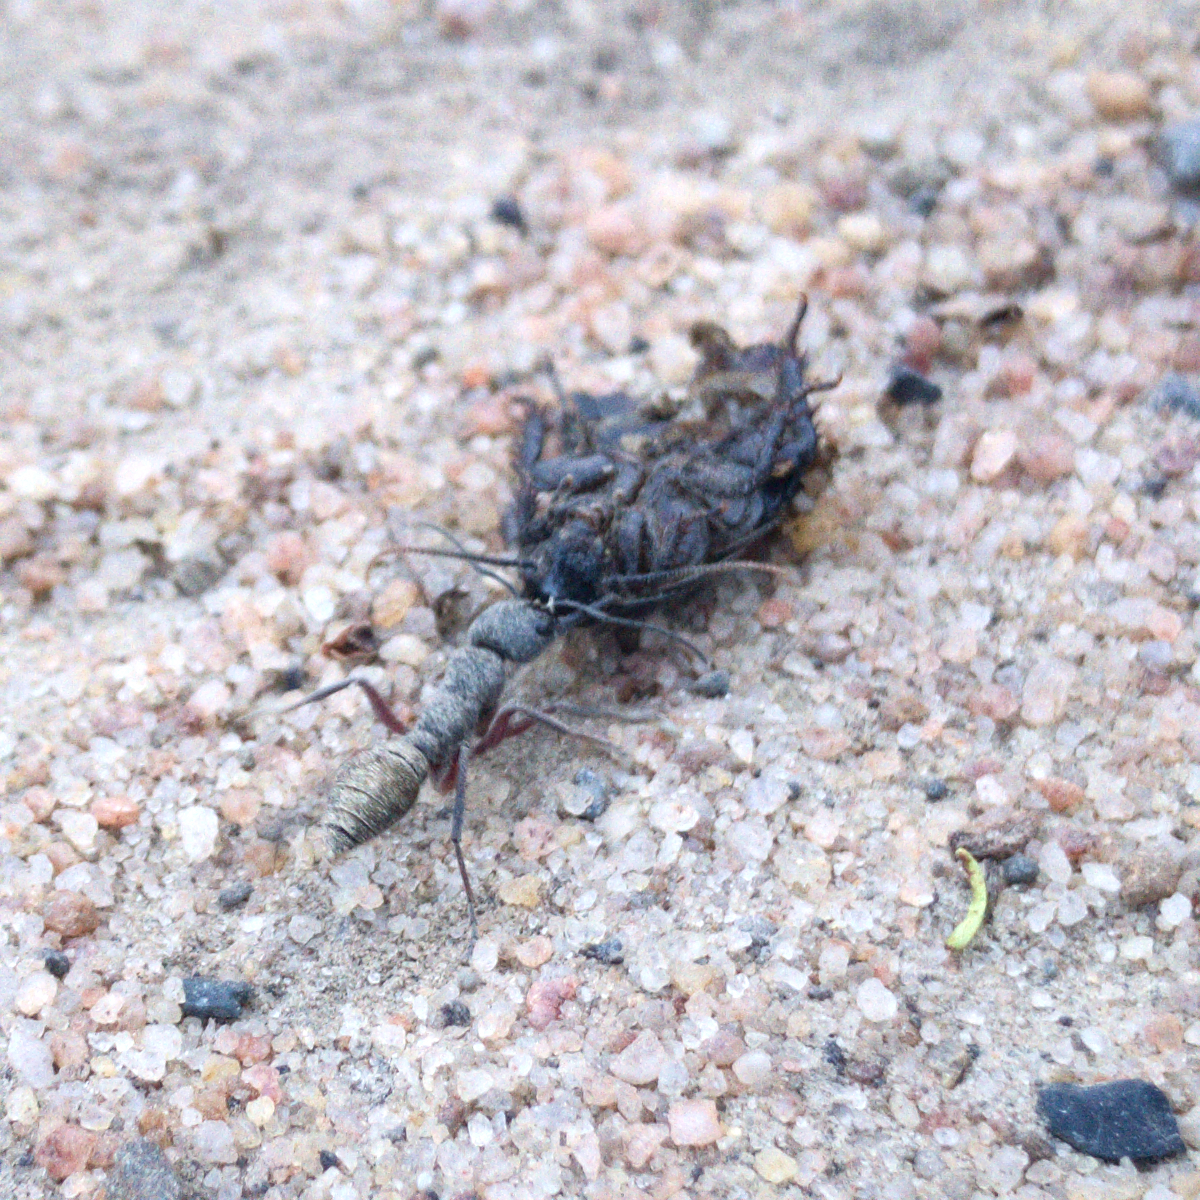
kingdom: Animalia
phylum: Arthropoda
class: Insecta
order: Hymenoptera
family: Formicidae
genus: Myrmecia
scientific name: Myrmecia fulvipes
